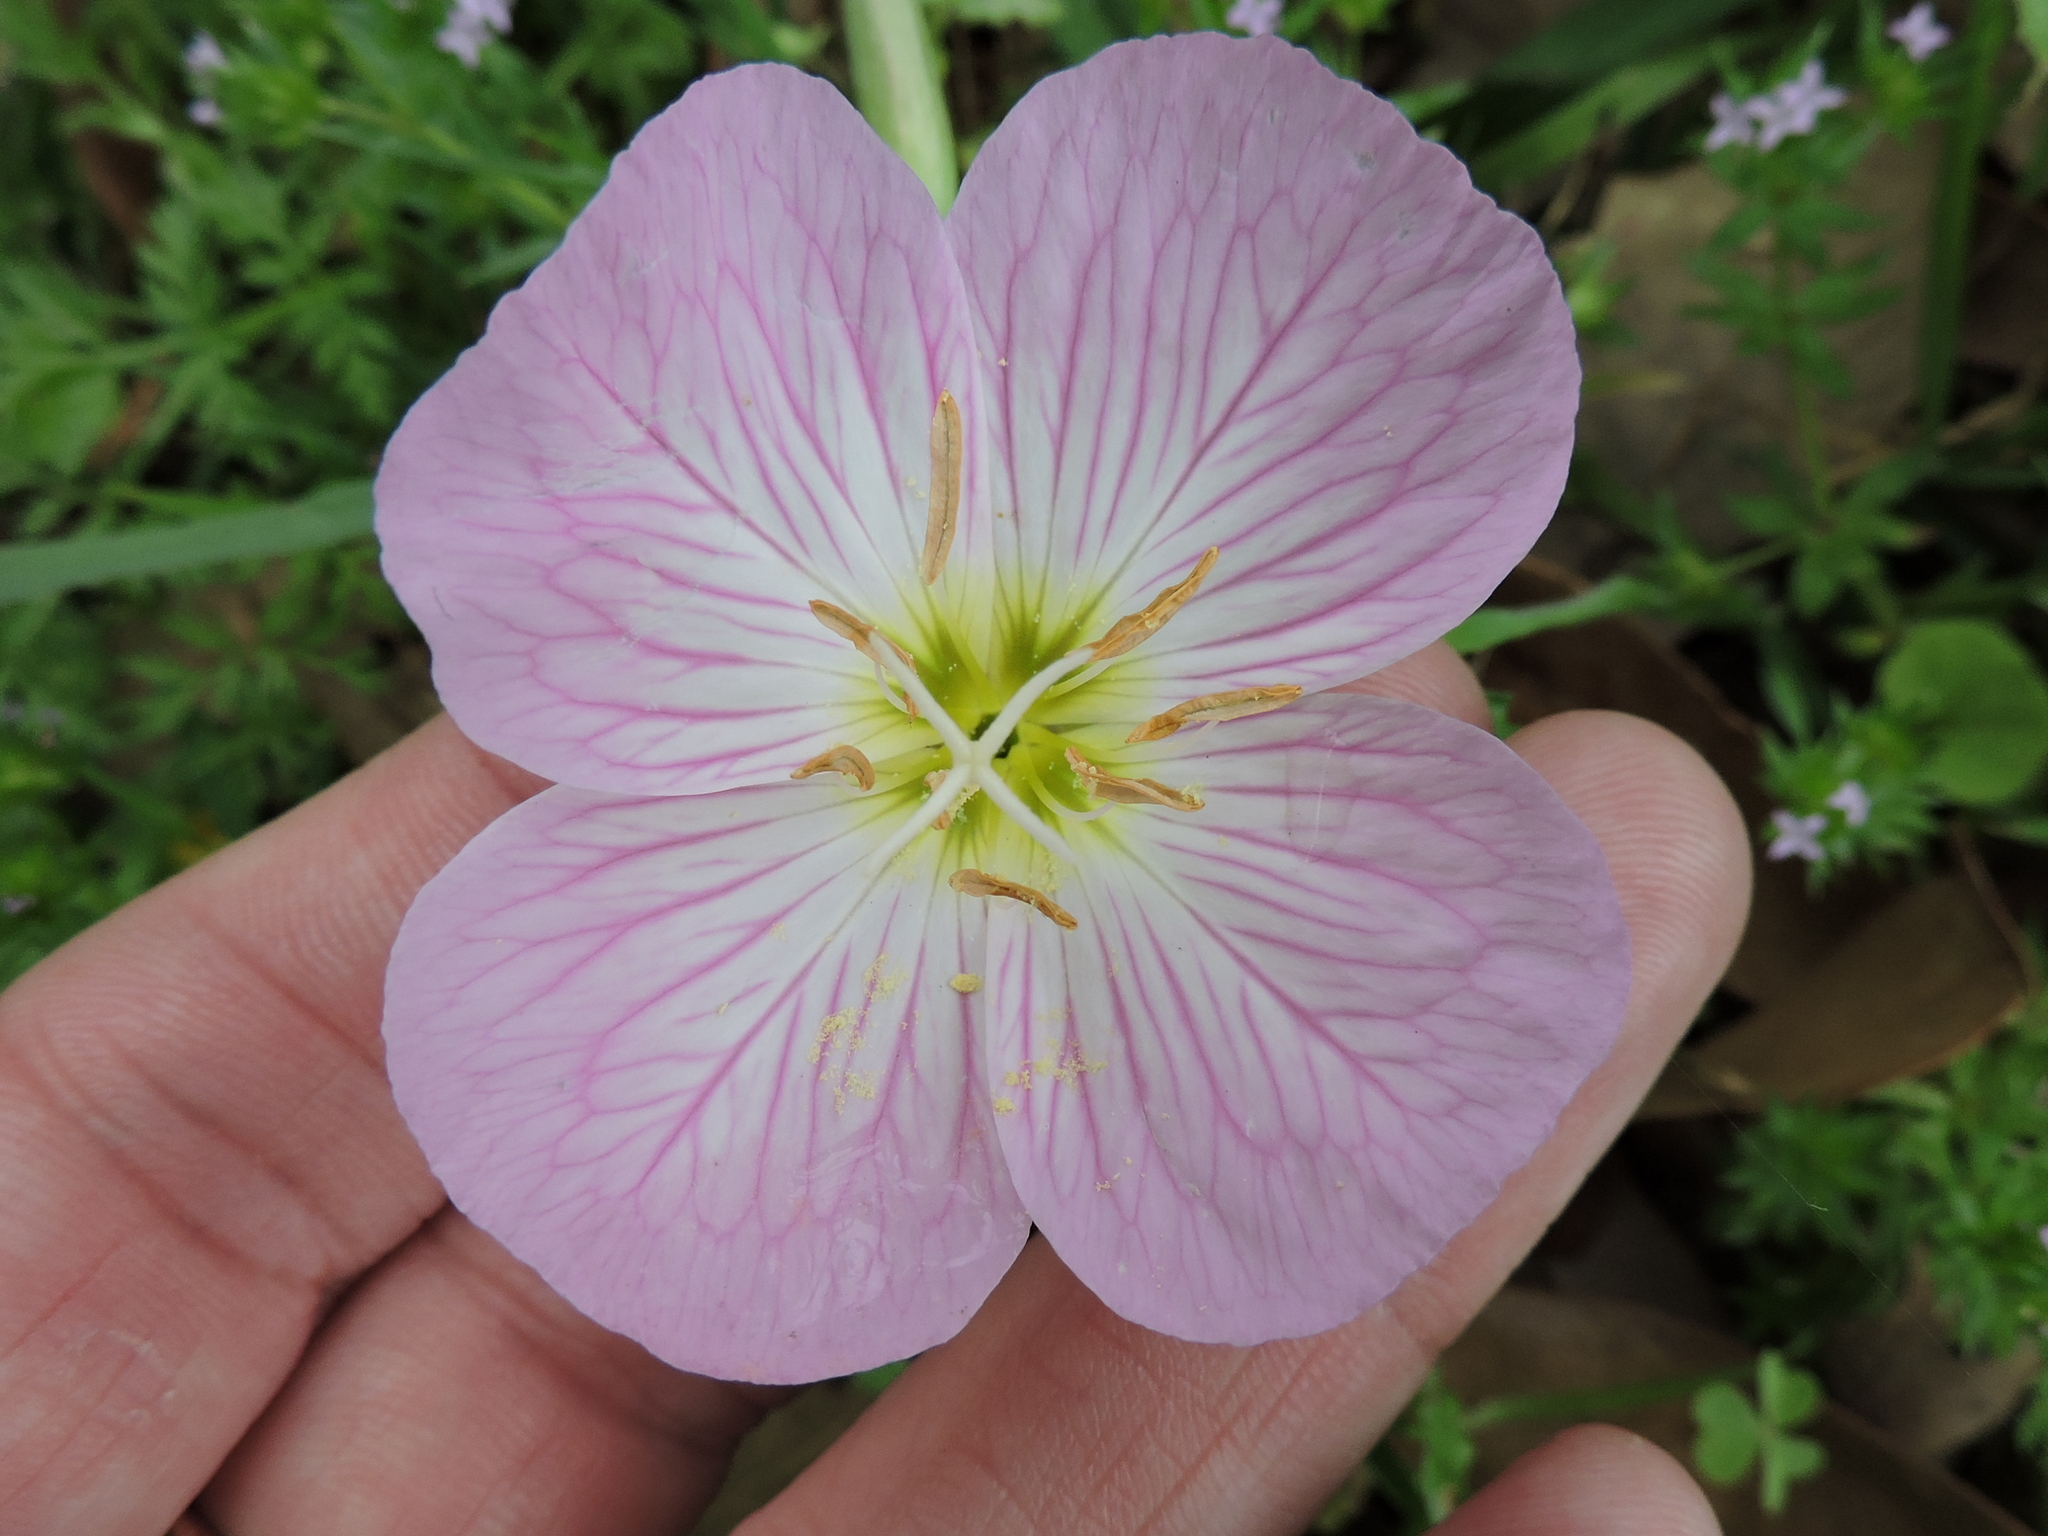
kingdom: Plantae
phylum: Tracheophyta
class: Magnoliopsida
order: Myrtales
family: Onagraceae
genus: Oenothera
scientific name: Oenothera speciosa
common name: White evening-primrose
